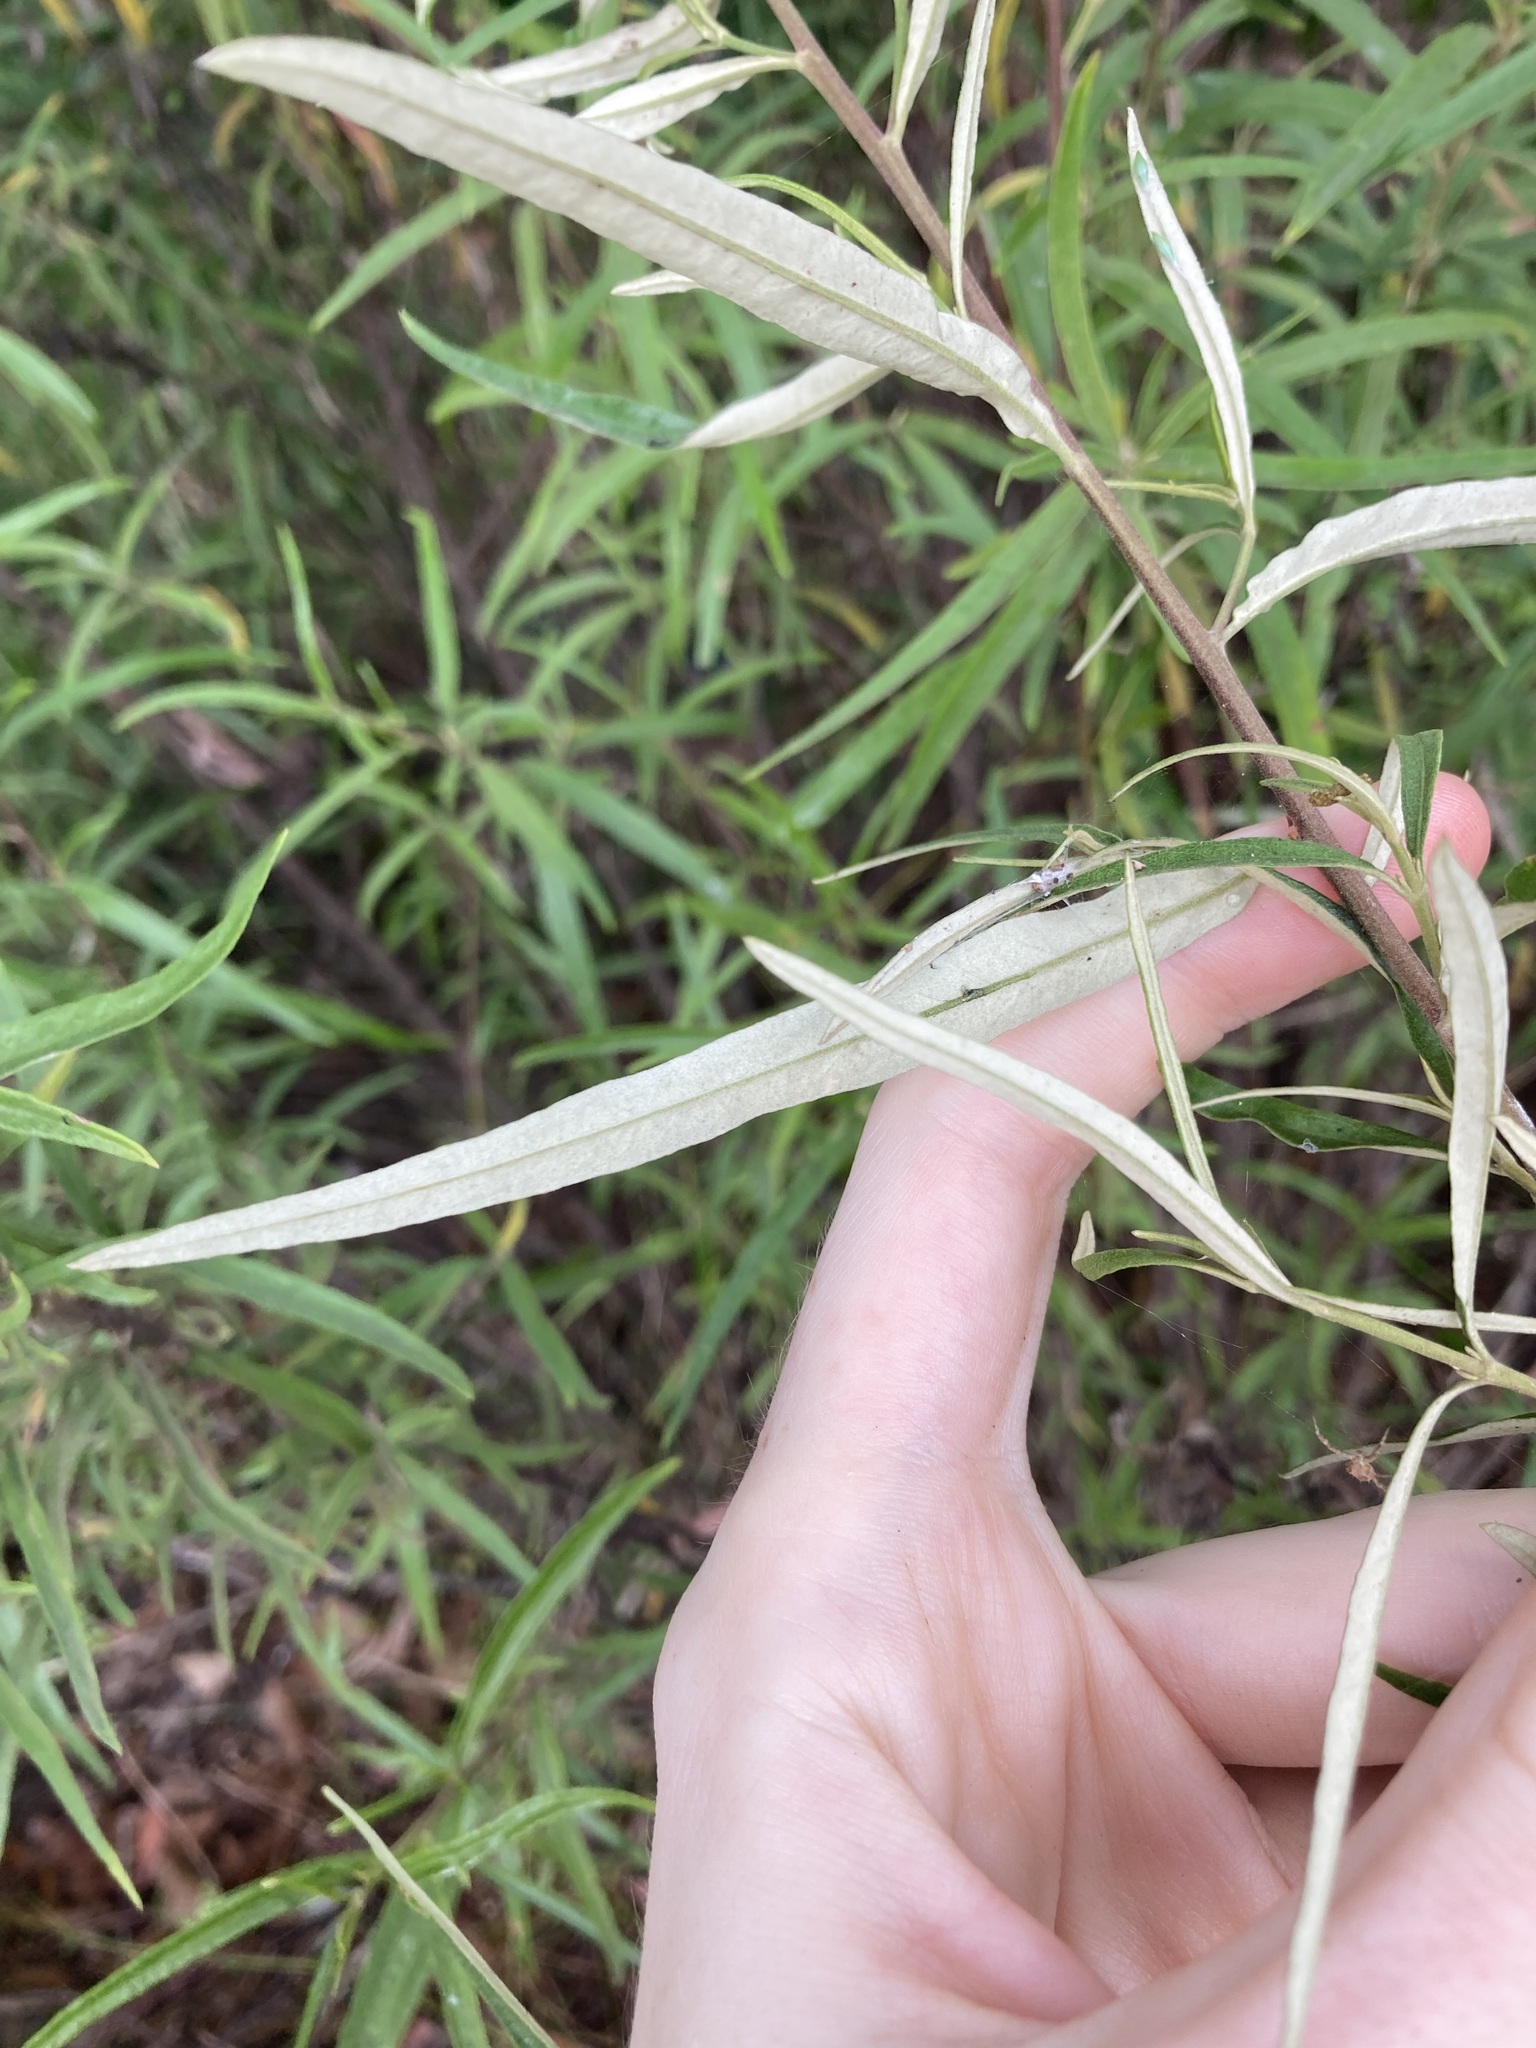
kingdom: Plantae
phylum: Tracheophyta
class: Magnoliopsida
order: Asterales
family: Asteraceae
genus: Olearia
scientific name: Olearia viscidula
